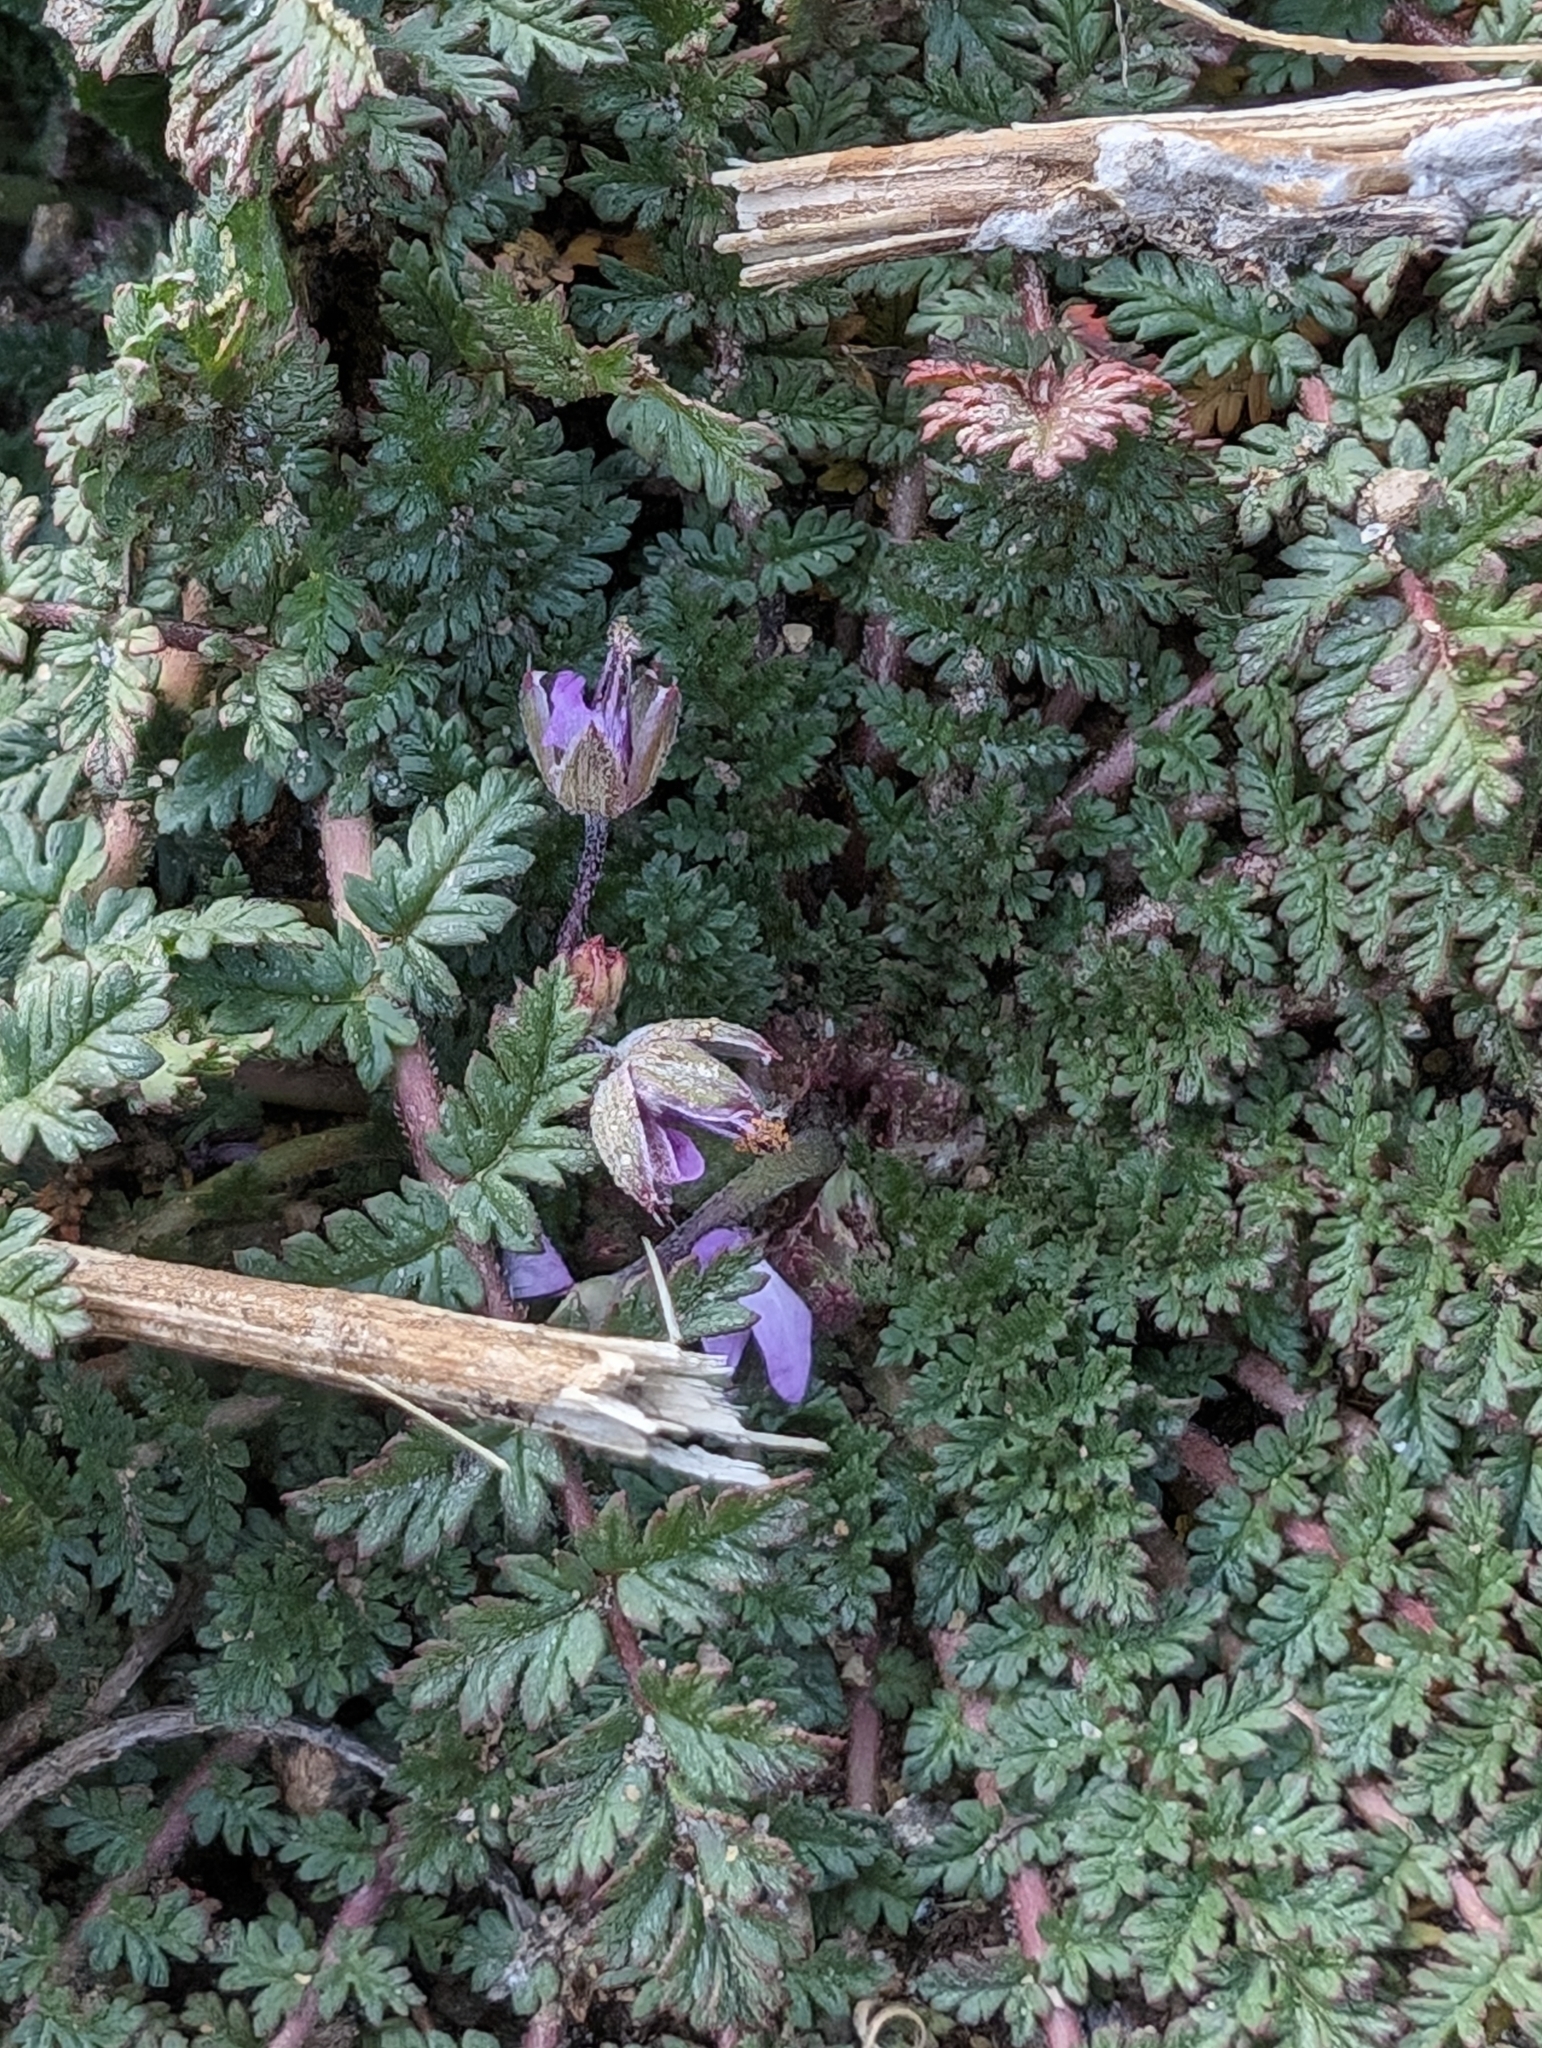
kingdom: Plantae
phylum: Tracheophyta
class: Magnoliopsida
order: Geraniales
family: Geraniaceae
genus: Erodium
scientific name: Erodium cicutarium
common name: Common stork's-bill
